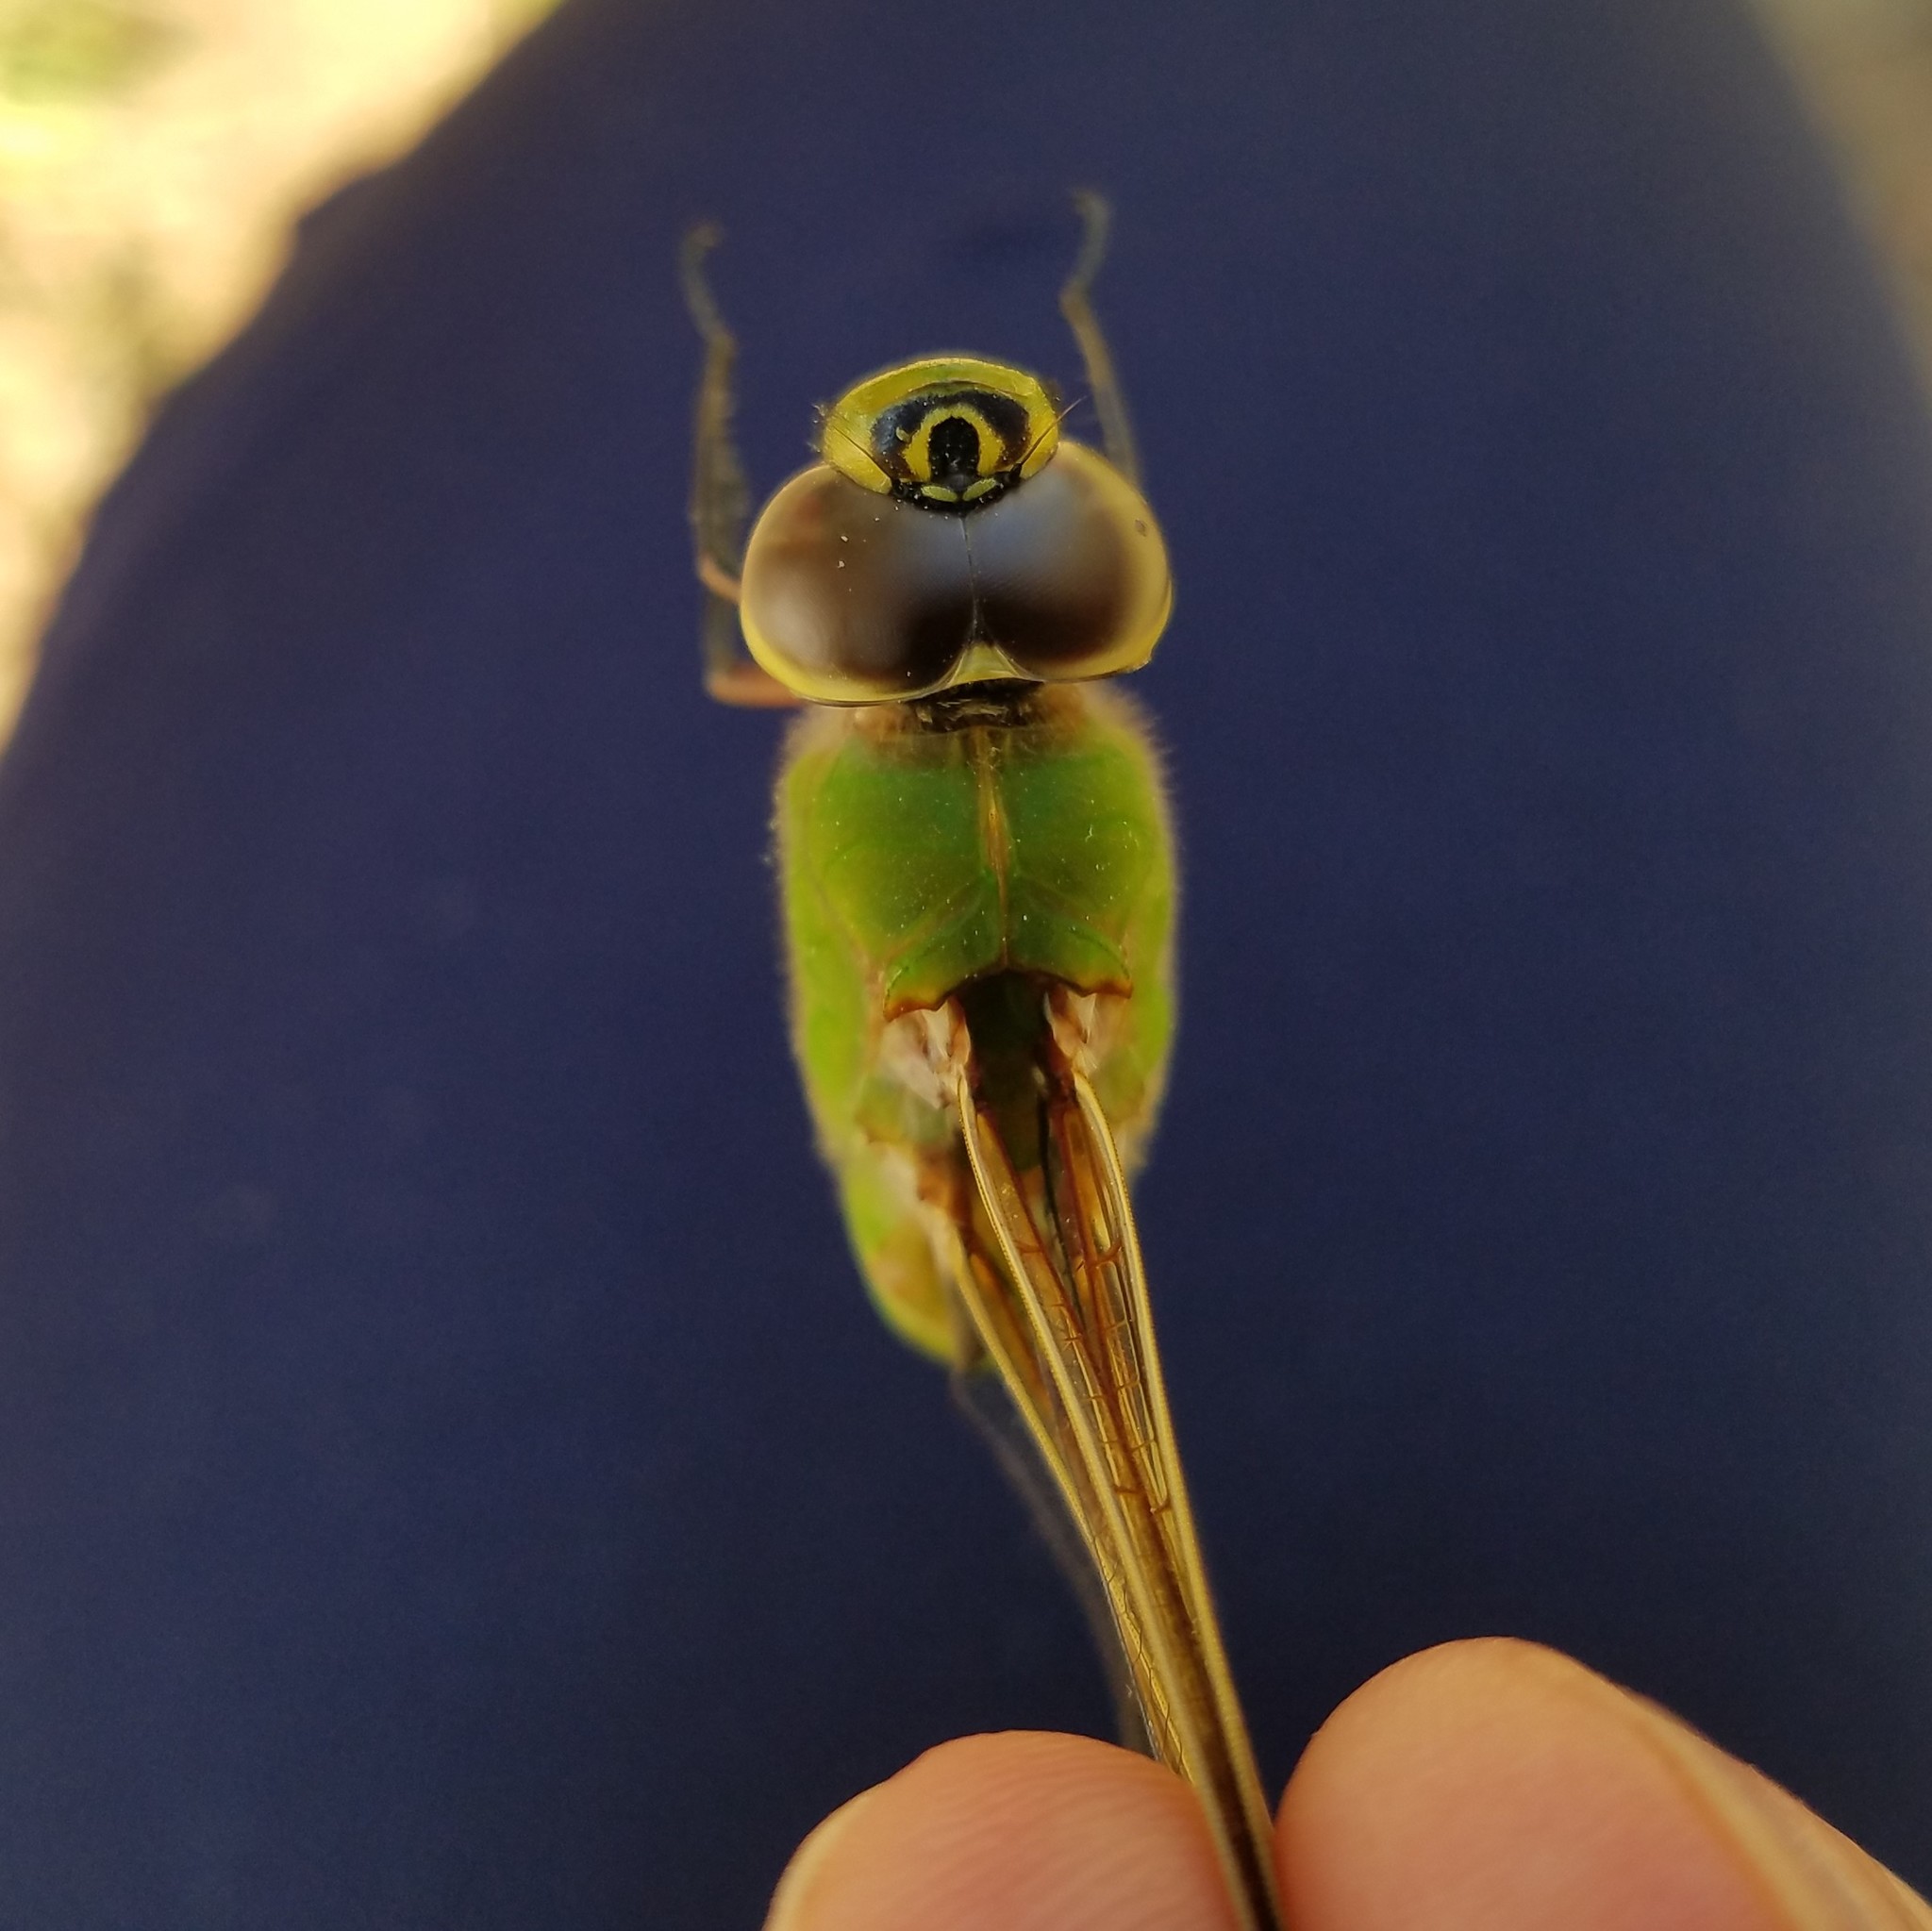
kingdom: Animalia
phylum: Arthropoda
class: Insecta
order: Odonata
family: Aeshnidae
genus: Anax
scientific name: Anax junius
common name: Common green darner
